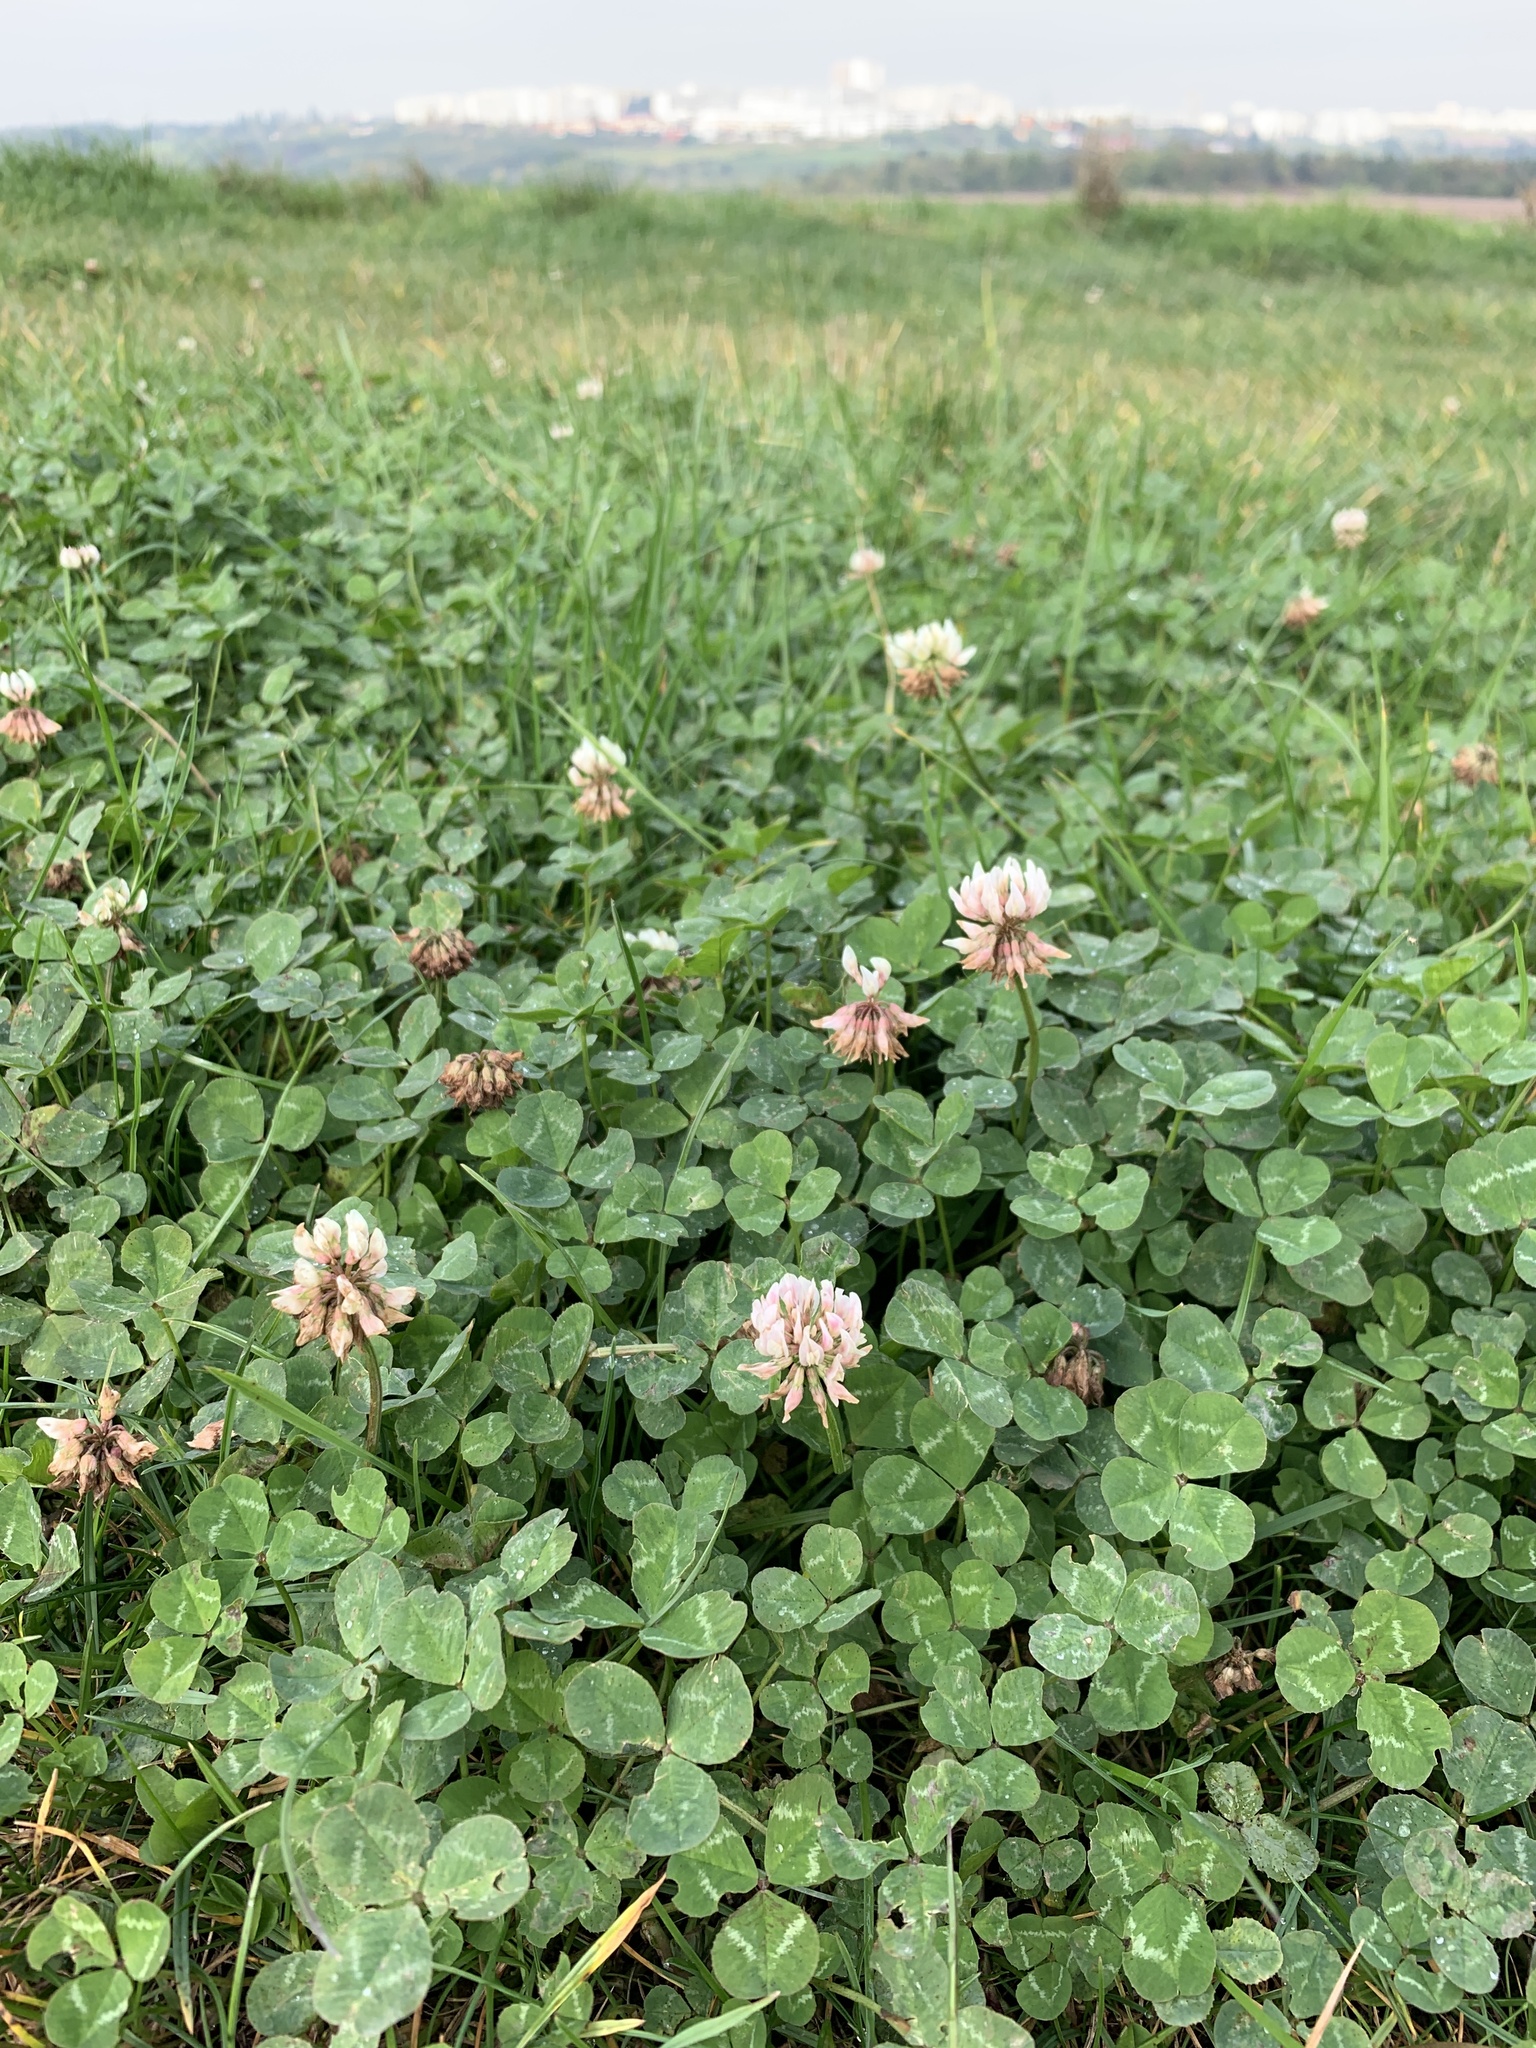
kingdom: Plantae
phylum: Tracheophyta
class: Magnoliopsida
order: Fabales
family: Fabaceae
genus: Trifolium
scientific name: Trifolium repens
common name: White clover
